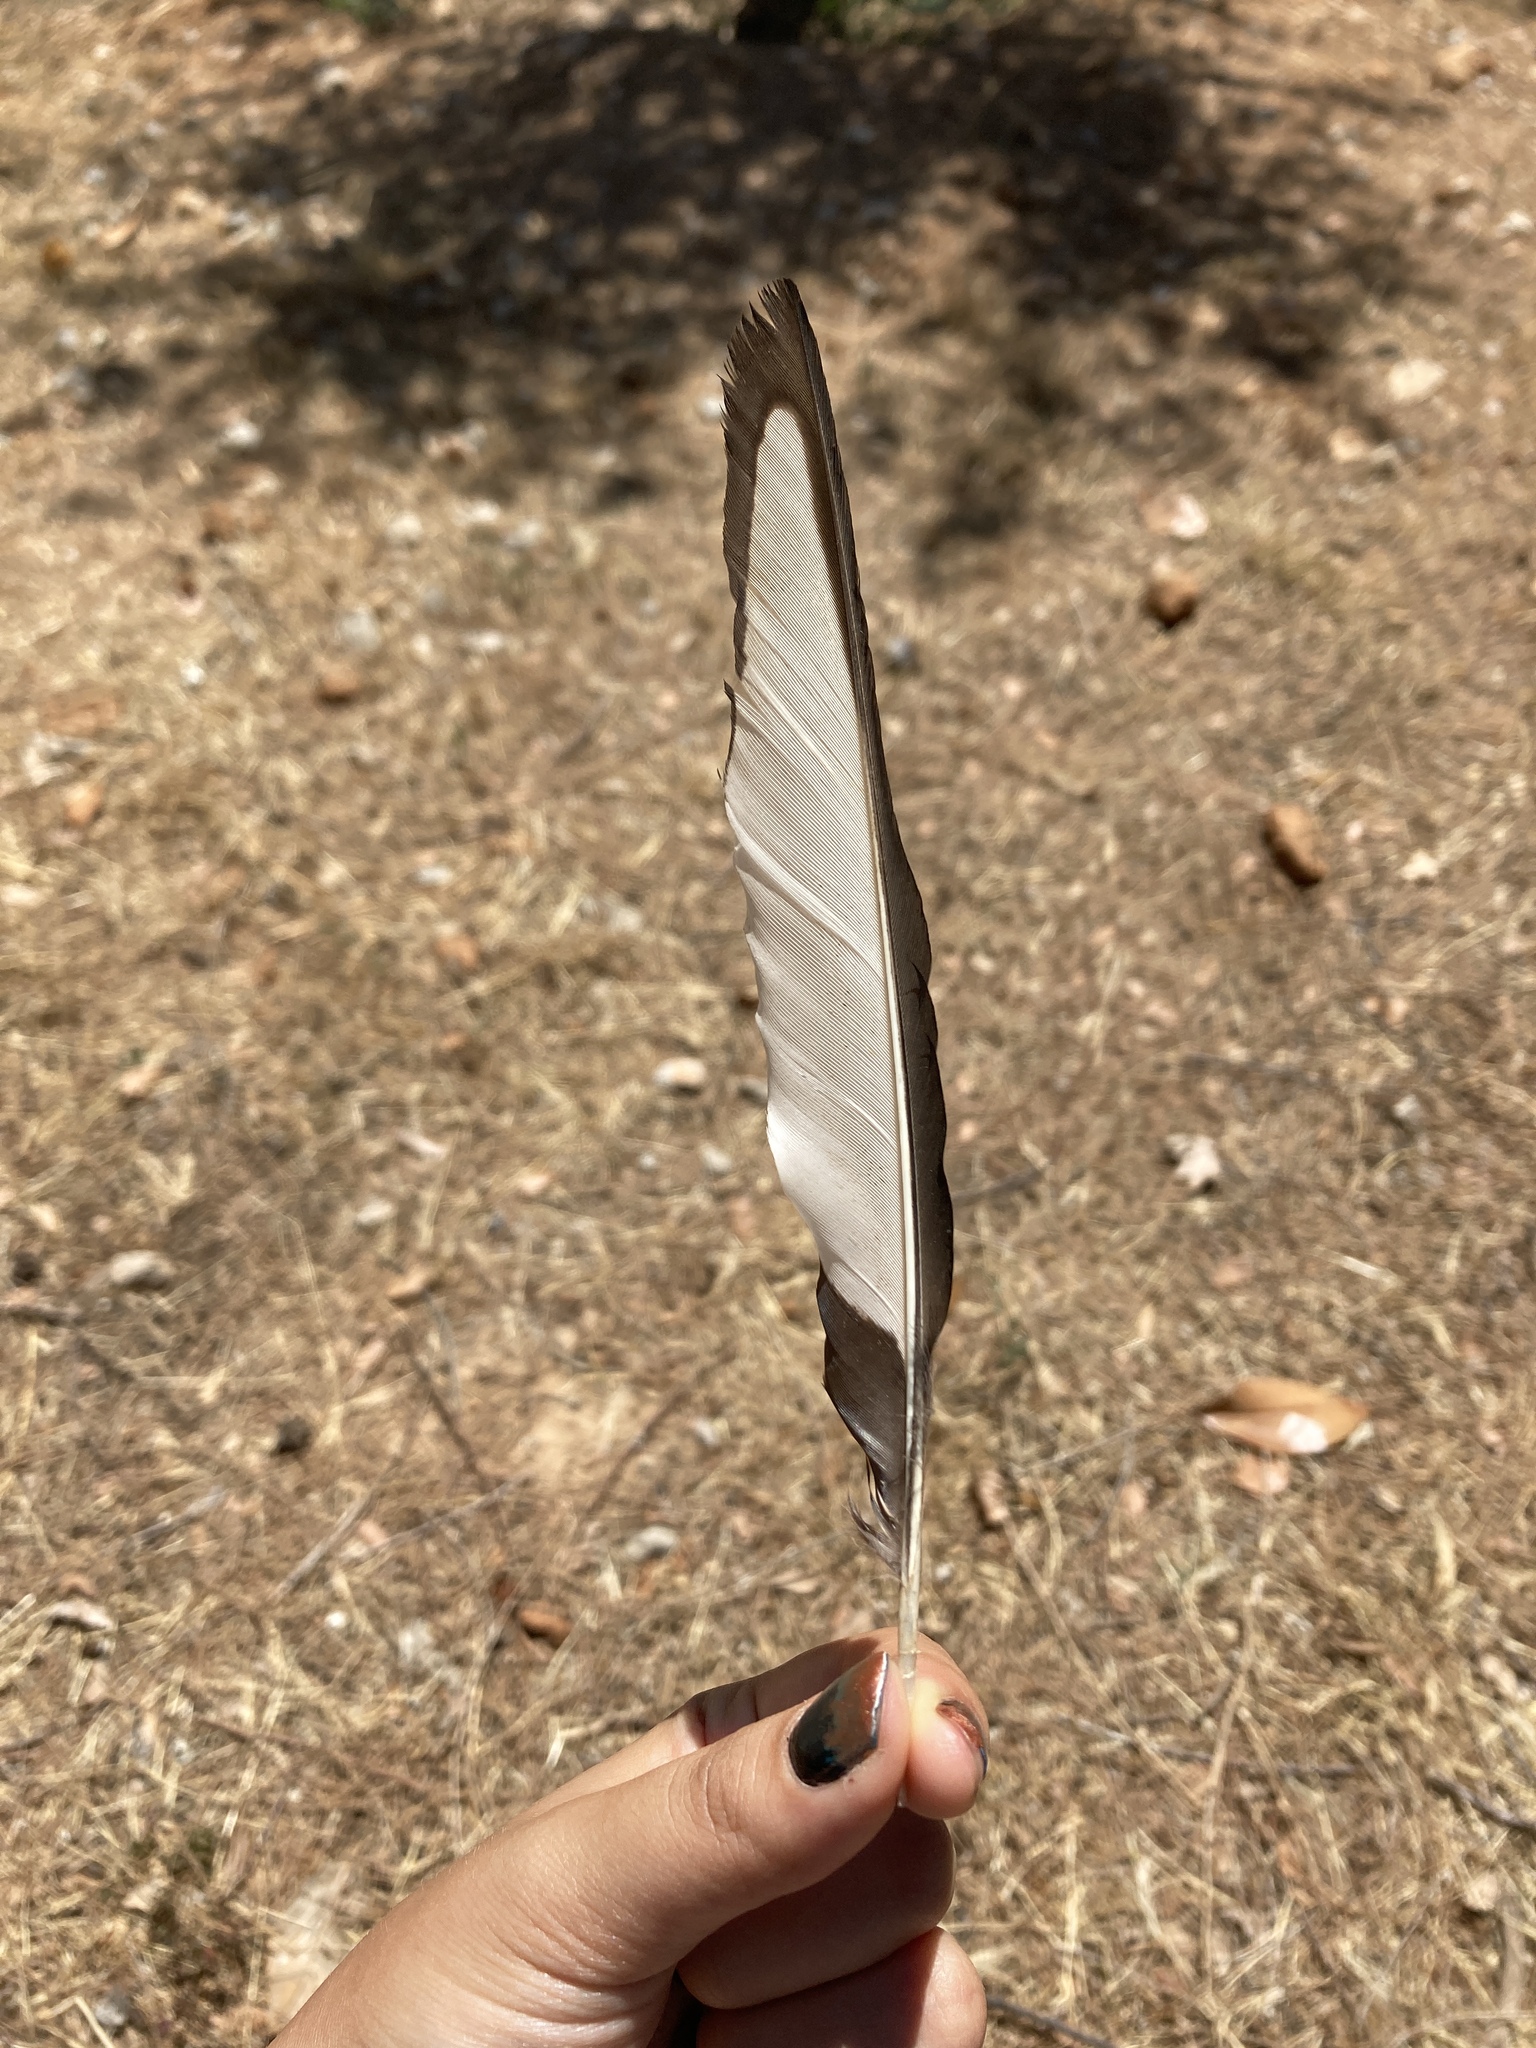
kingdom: Animalia
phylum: Chordata
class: Aves
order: Passeriformes
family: Corvidae
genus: Pica
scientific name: Pica pica
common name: Eurasian magpie
